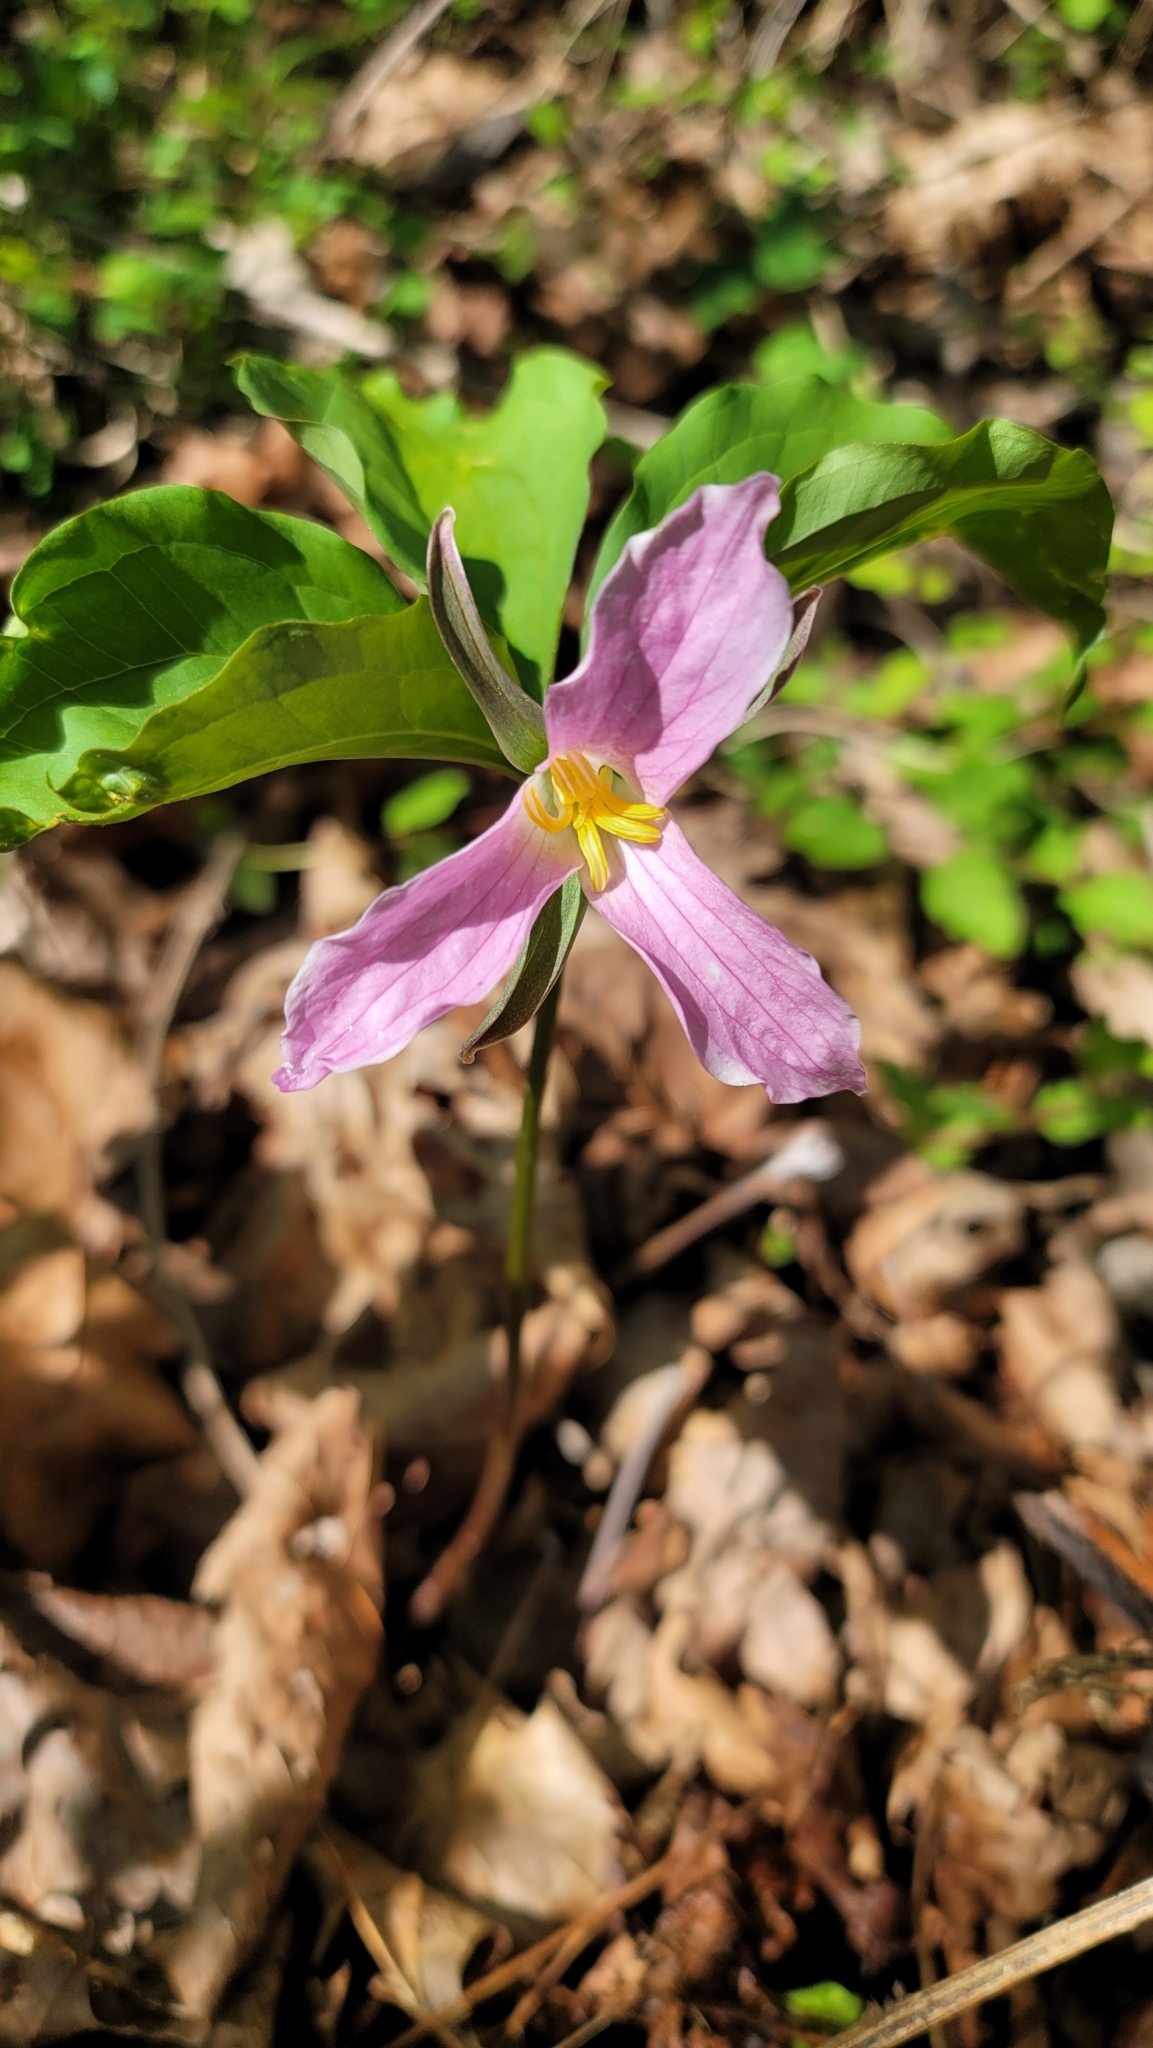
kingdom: Plantae
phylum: Tracheophyta
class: Liliopsida
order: Liliales
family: Melanthiaceae
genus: Trillium
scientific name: Trillium catesbaei
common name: Bashful trillium
